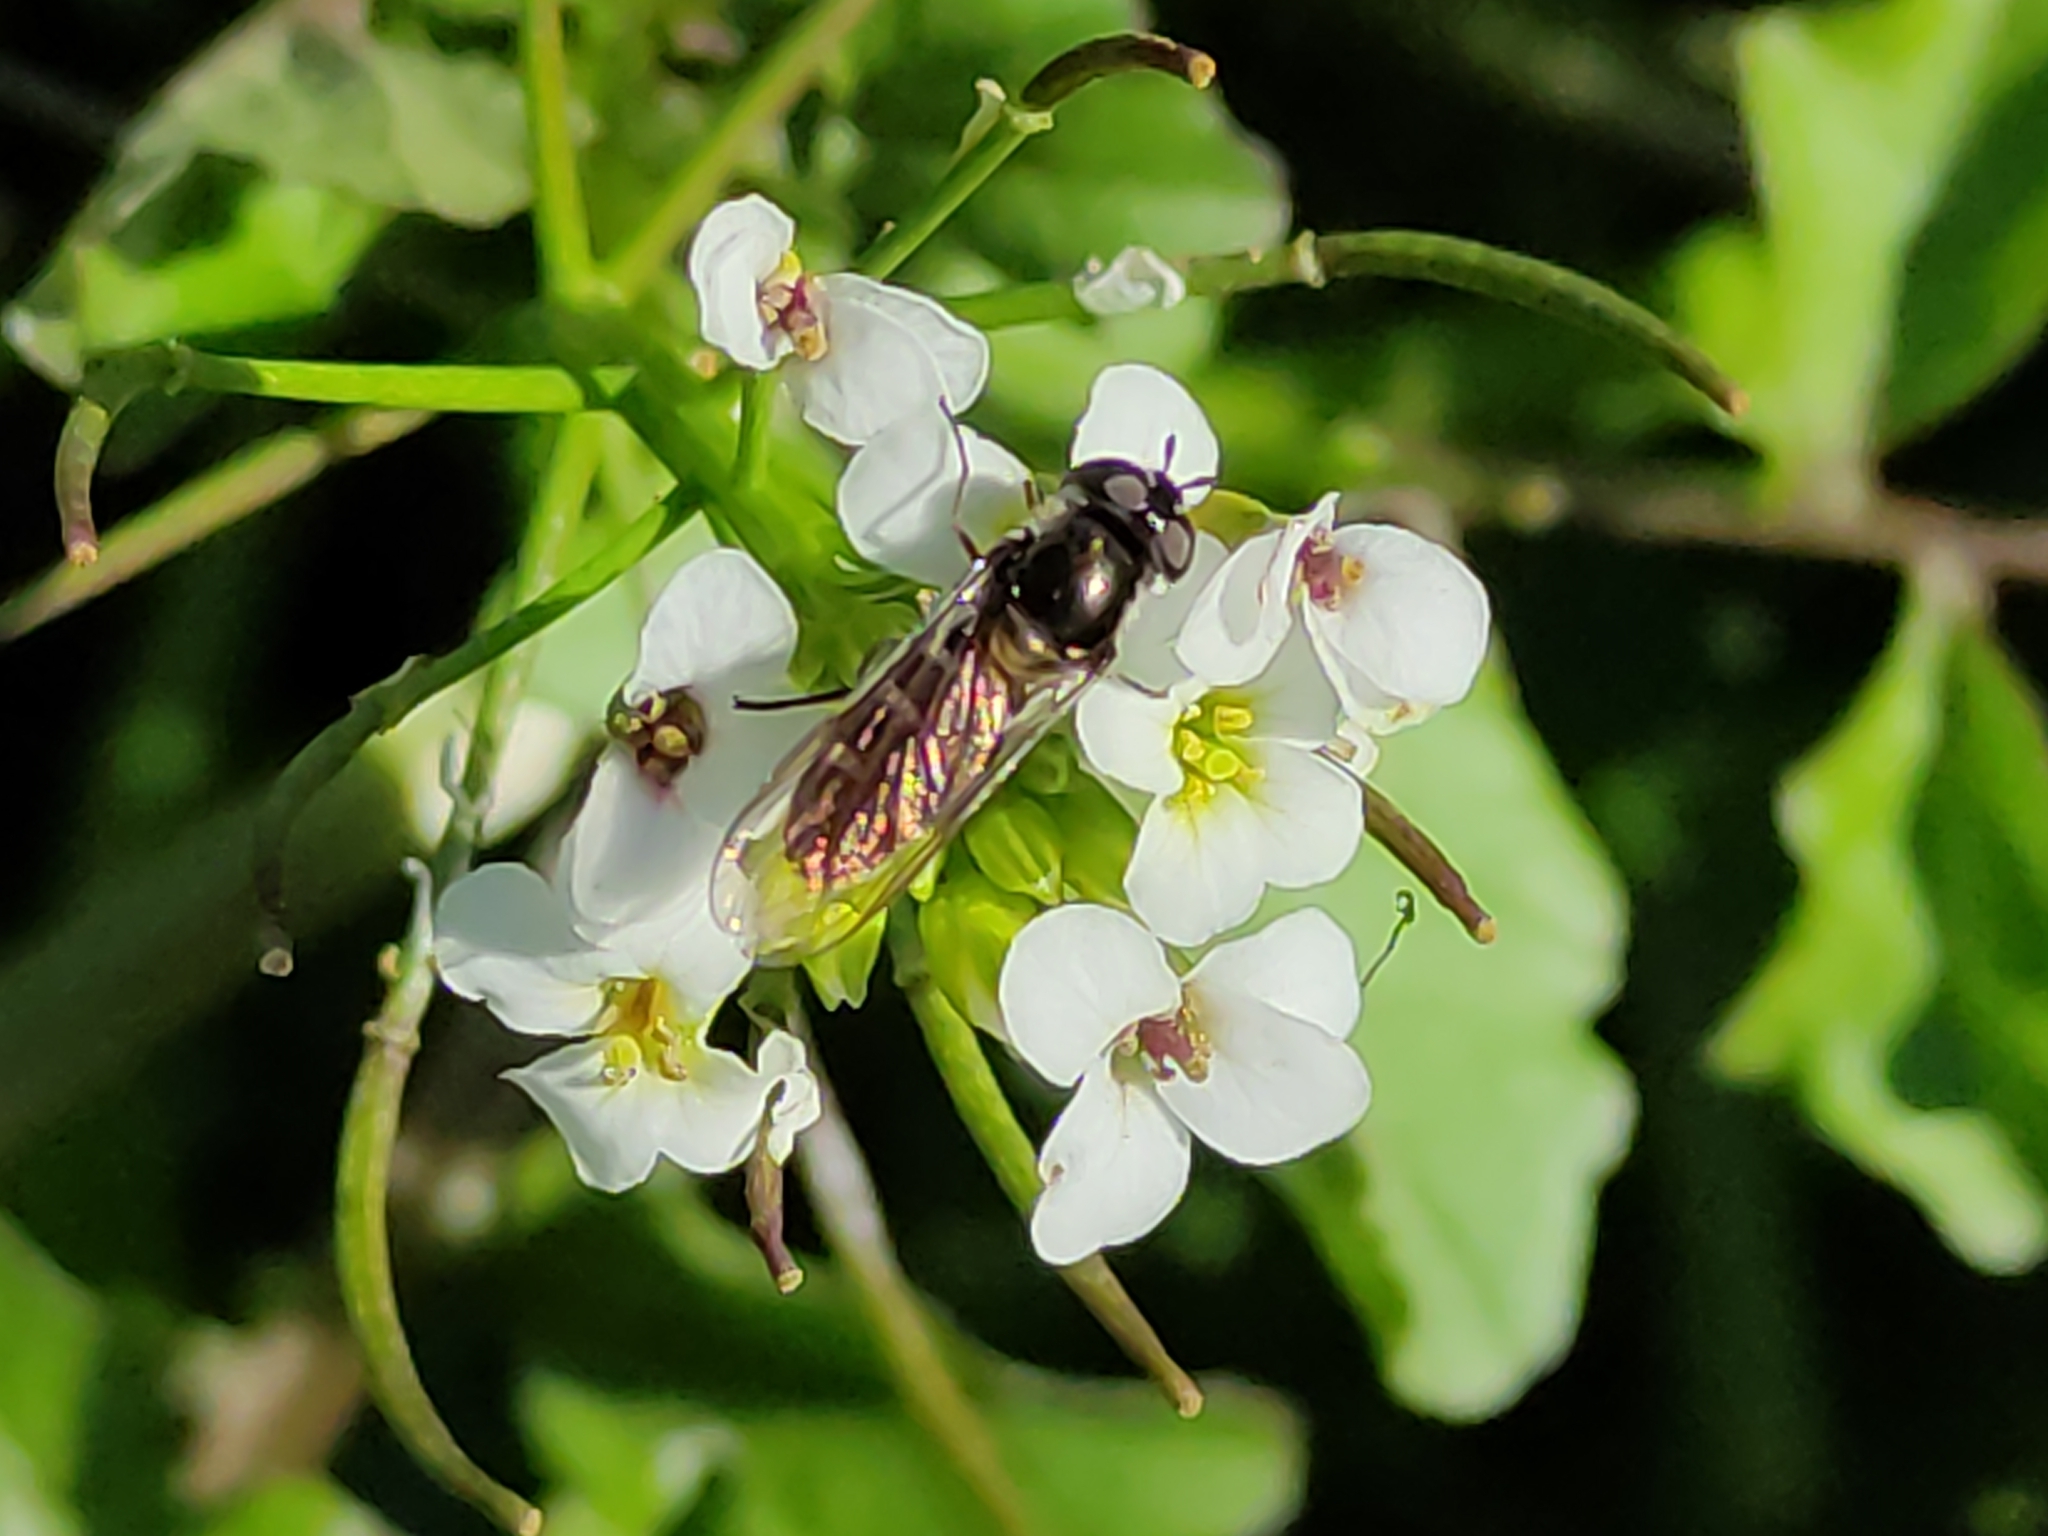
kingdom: Animalia
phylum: Arthropoda
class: Insecta
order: Diptera
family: Syrphidae
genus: Melangyna
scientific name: Melangyna novaezelandiae
